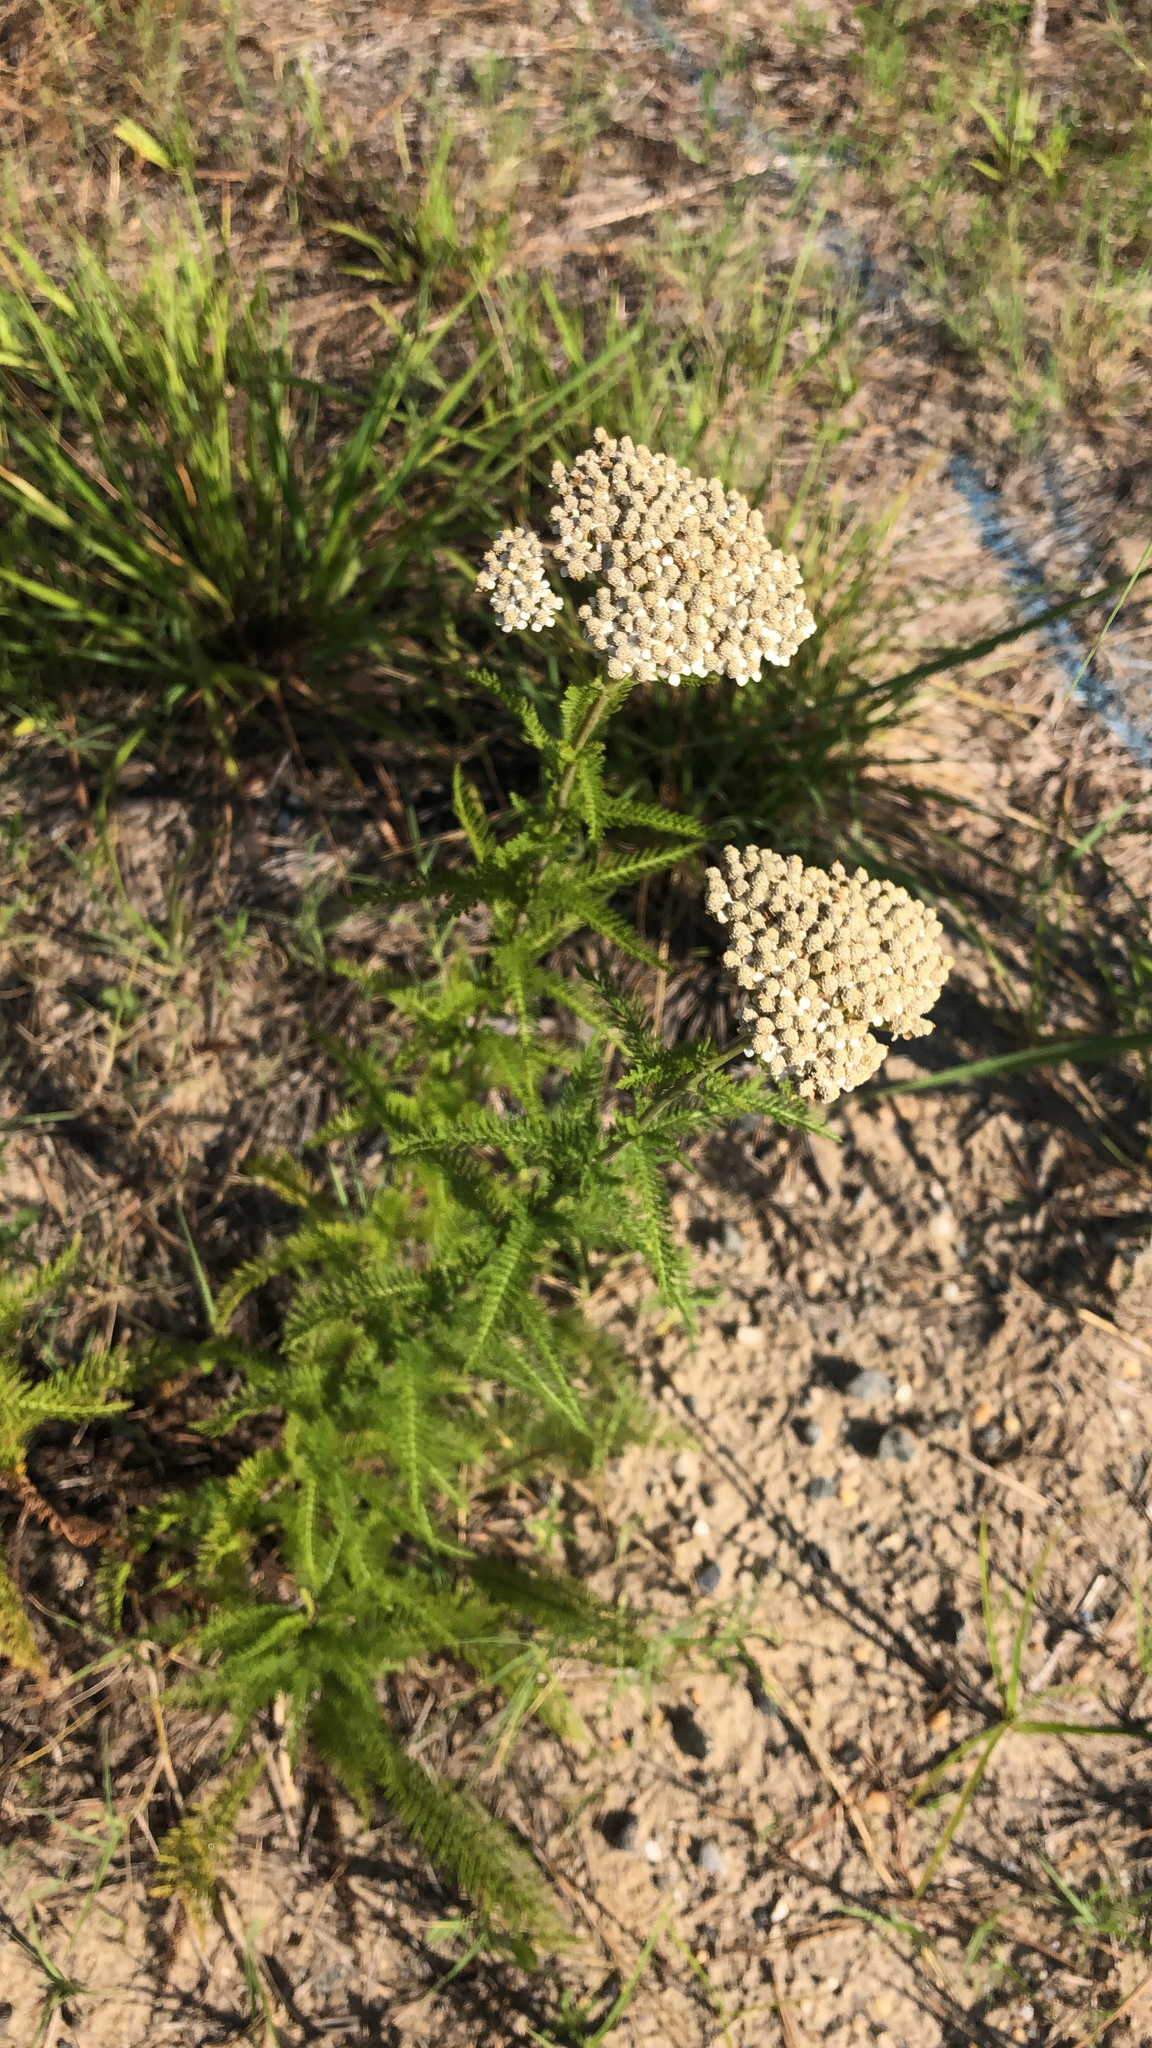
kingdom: Plantae
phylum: Tracheophyta
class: Magnoliopsida
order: Asterales
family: Asteraceae
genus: Achillea
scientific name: Achillea millefolium
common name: Yarrow
